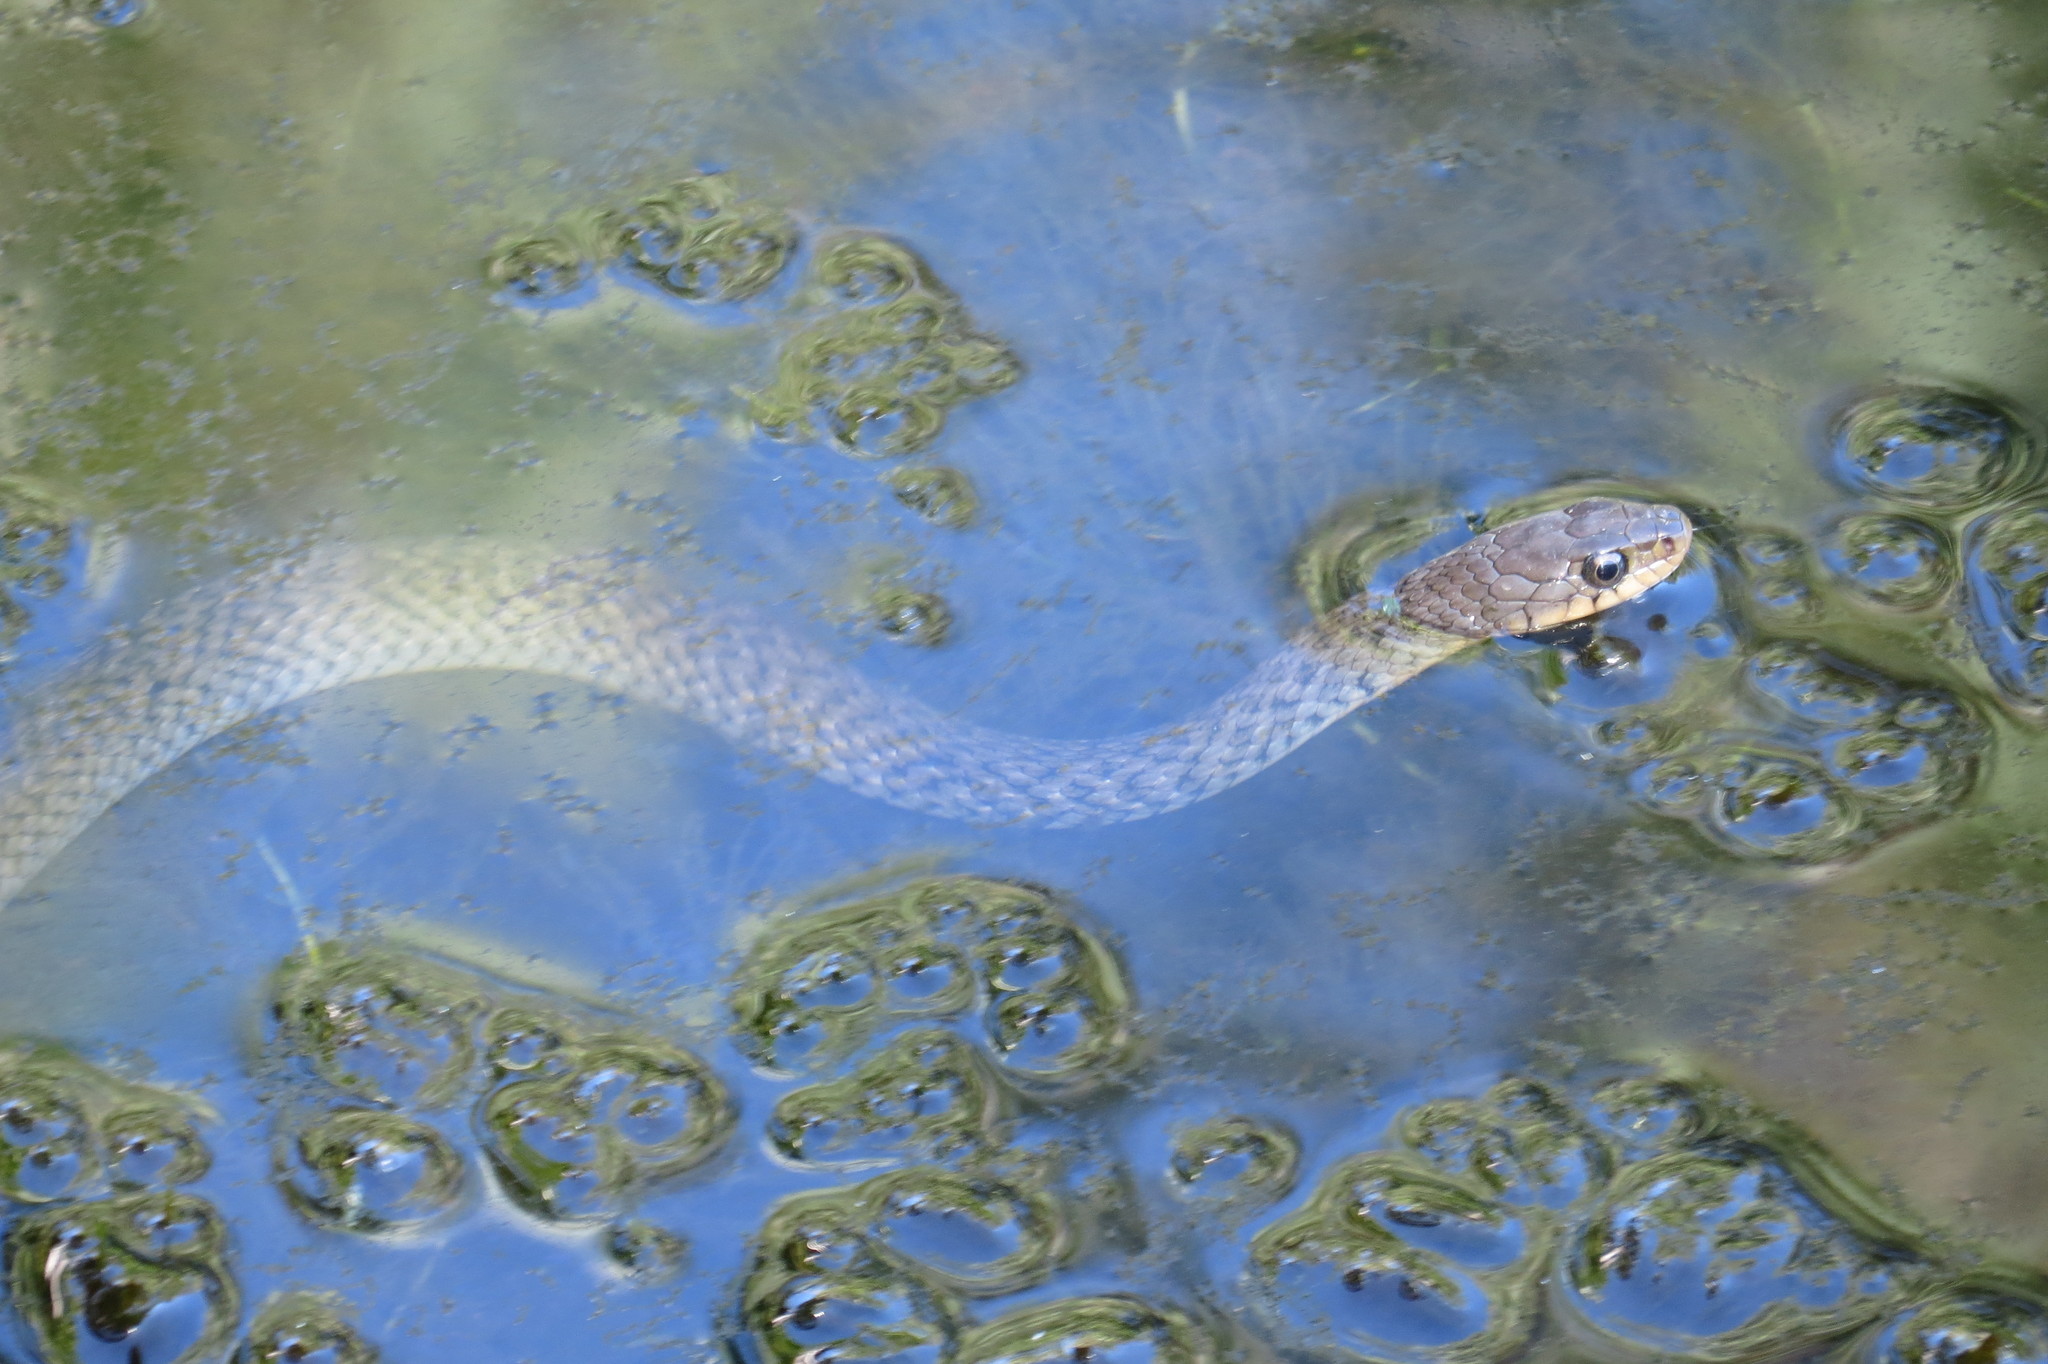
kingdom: Animalia
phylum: Chordata
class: Squamata
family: Colubridae
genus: Tropidonophis
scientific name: Tropidonophis mairii
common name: Common keelback
